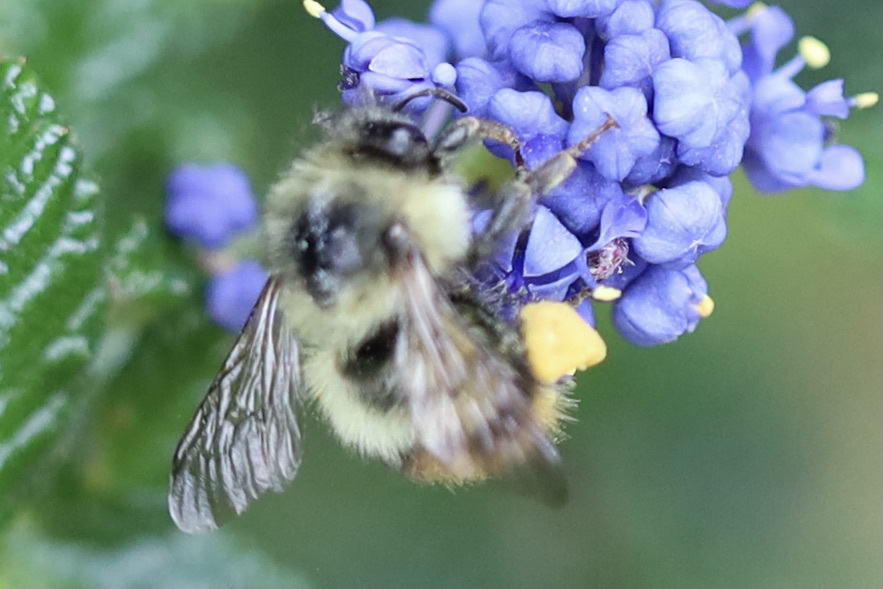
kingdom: Animalia
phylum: Arthropoda
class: Insecta
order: Hymenoptera
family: Apidae
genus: Bombus
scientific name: Bombus mixtus
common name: Fuzzy-horned bumble bee
